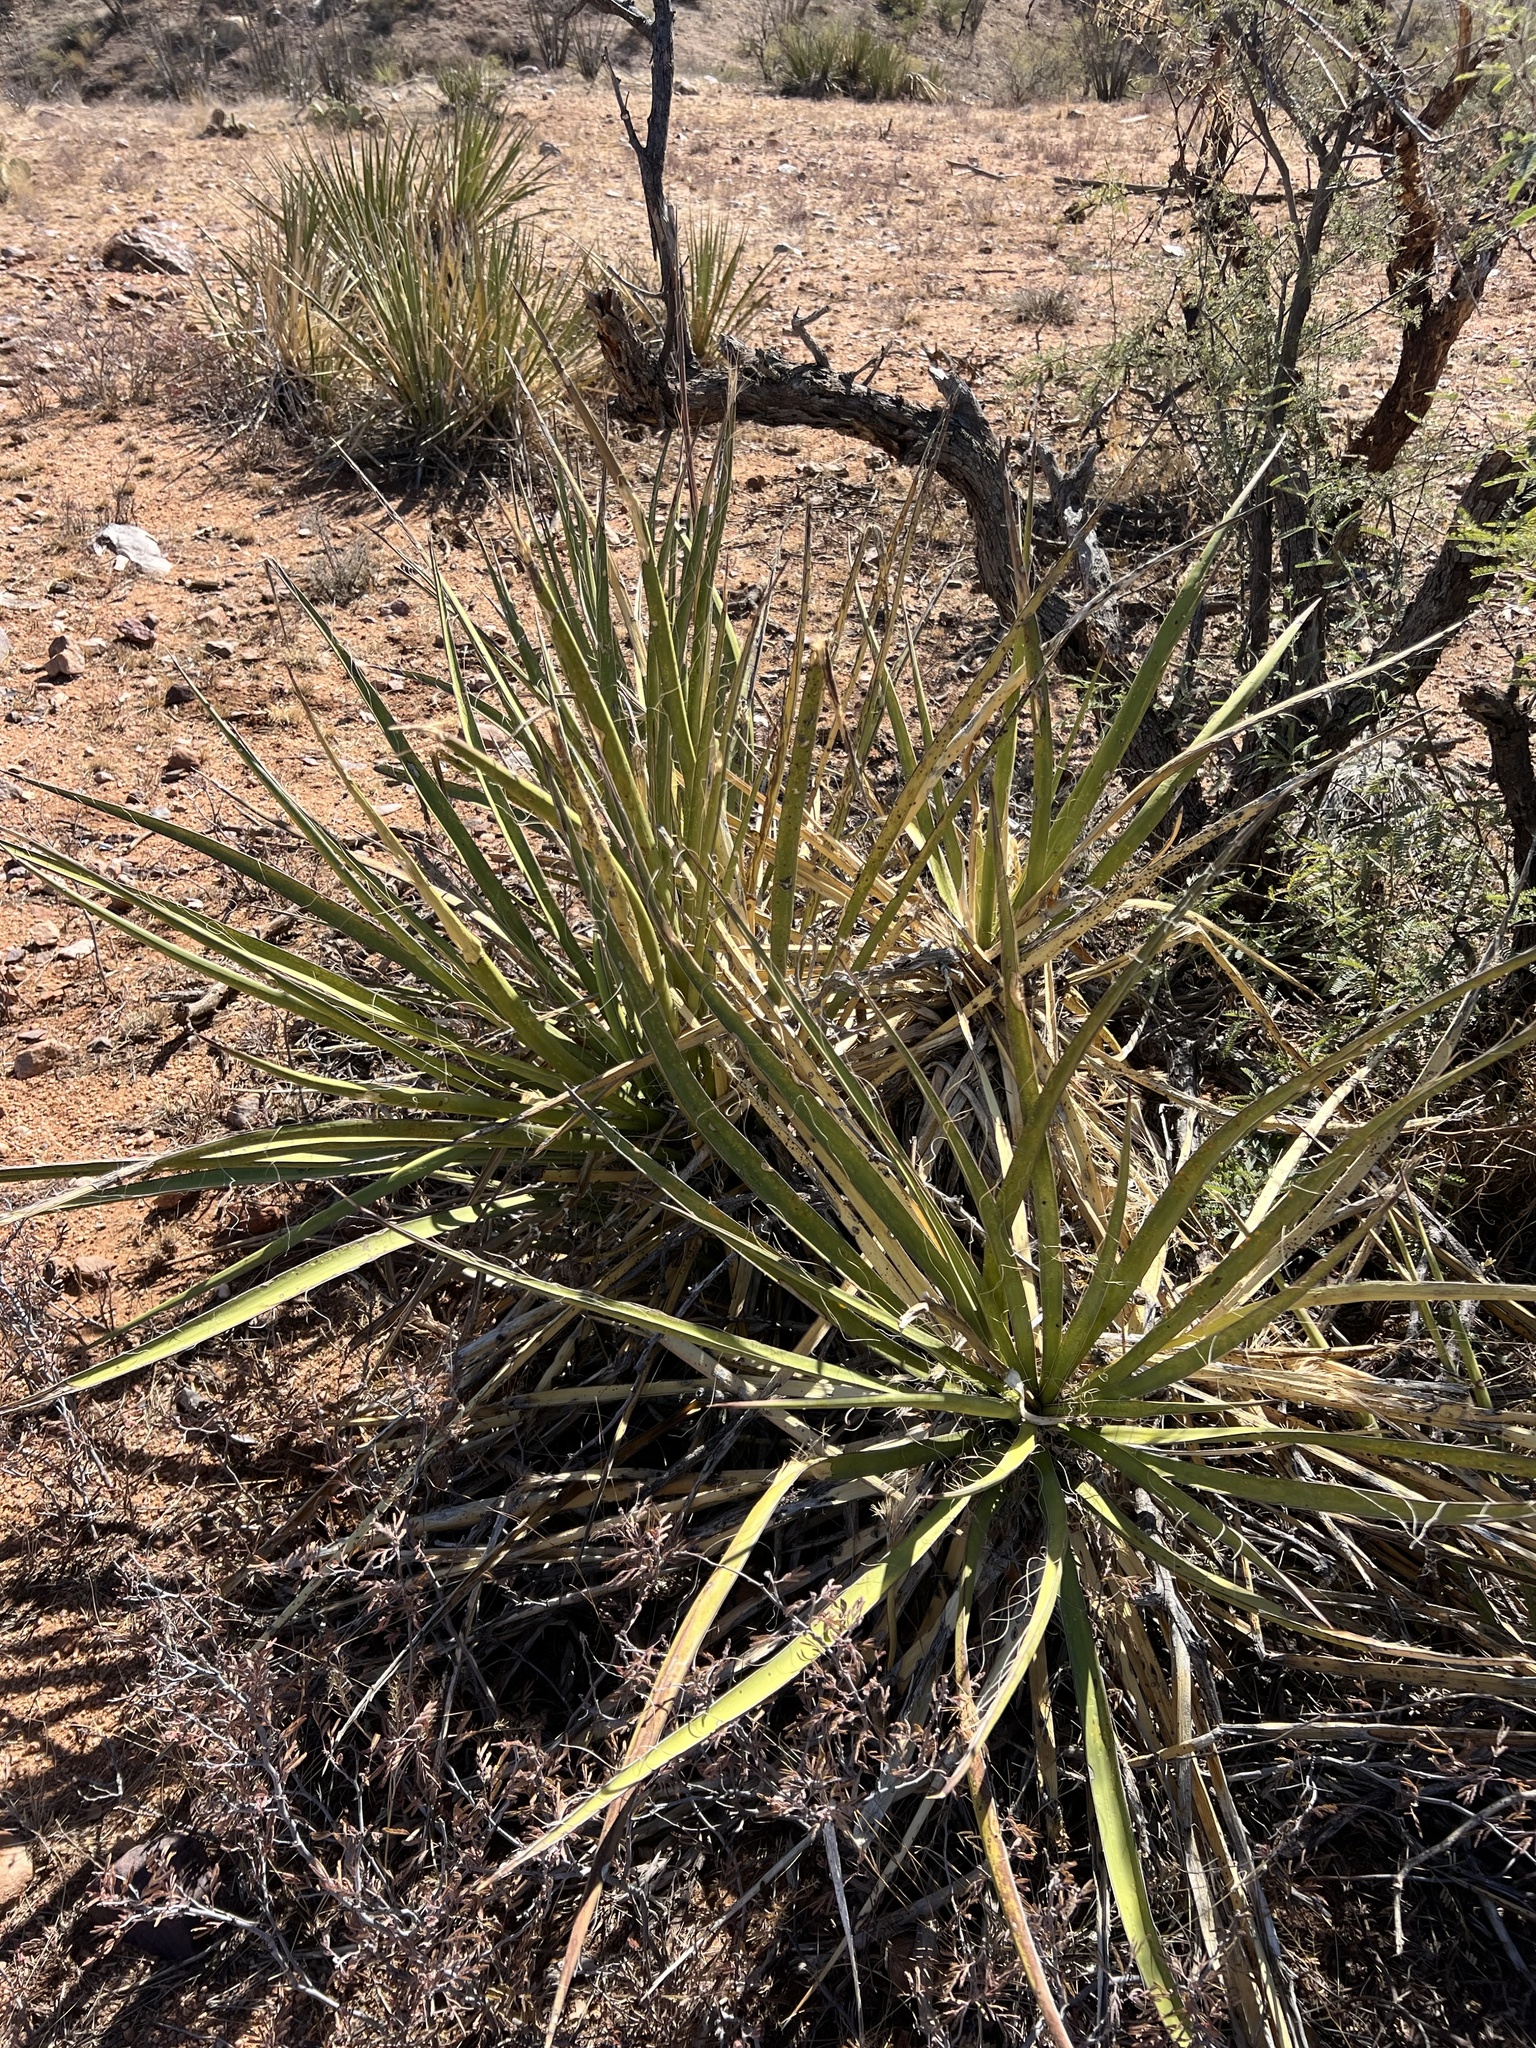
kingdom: Plantae
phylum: Tracheophyta
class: Liliopsida
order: Asparagales
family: Asparagaceae
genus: Yucca
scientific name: Yucca baccata
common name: Banana yucca
